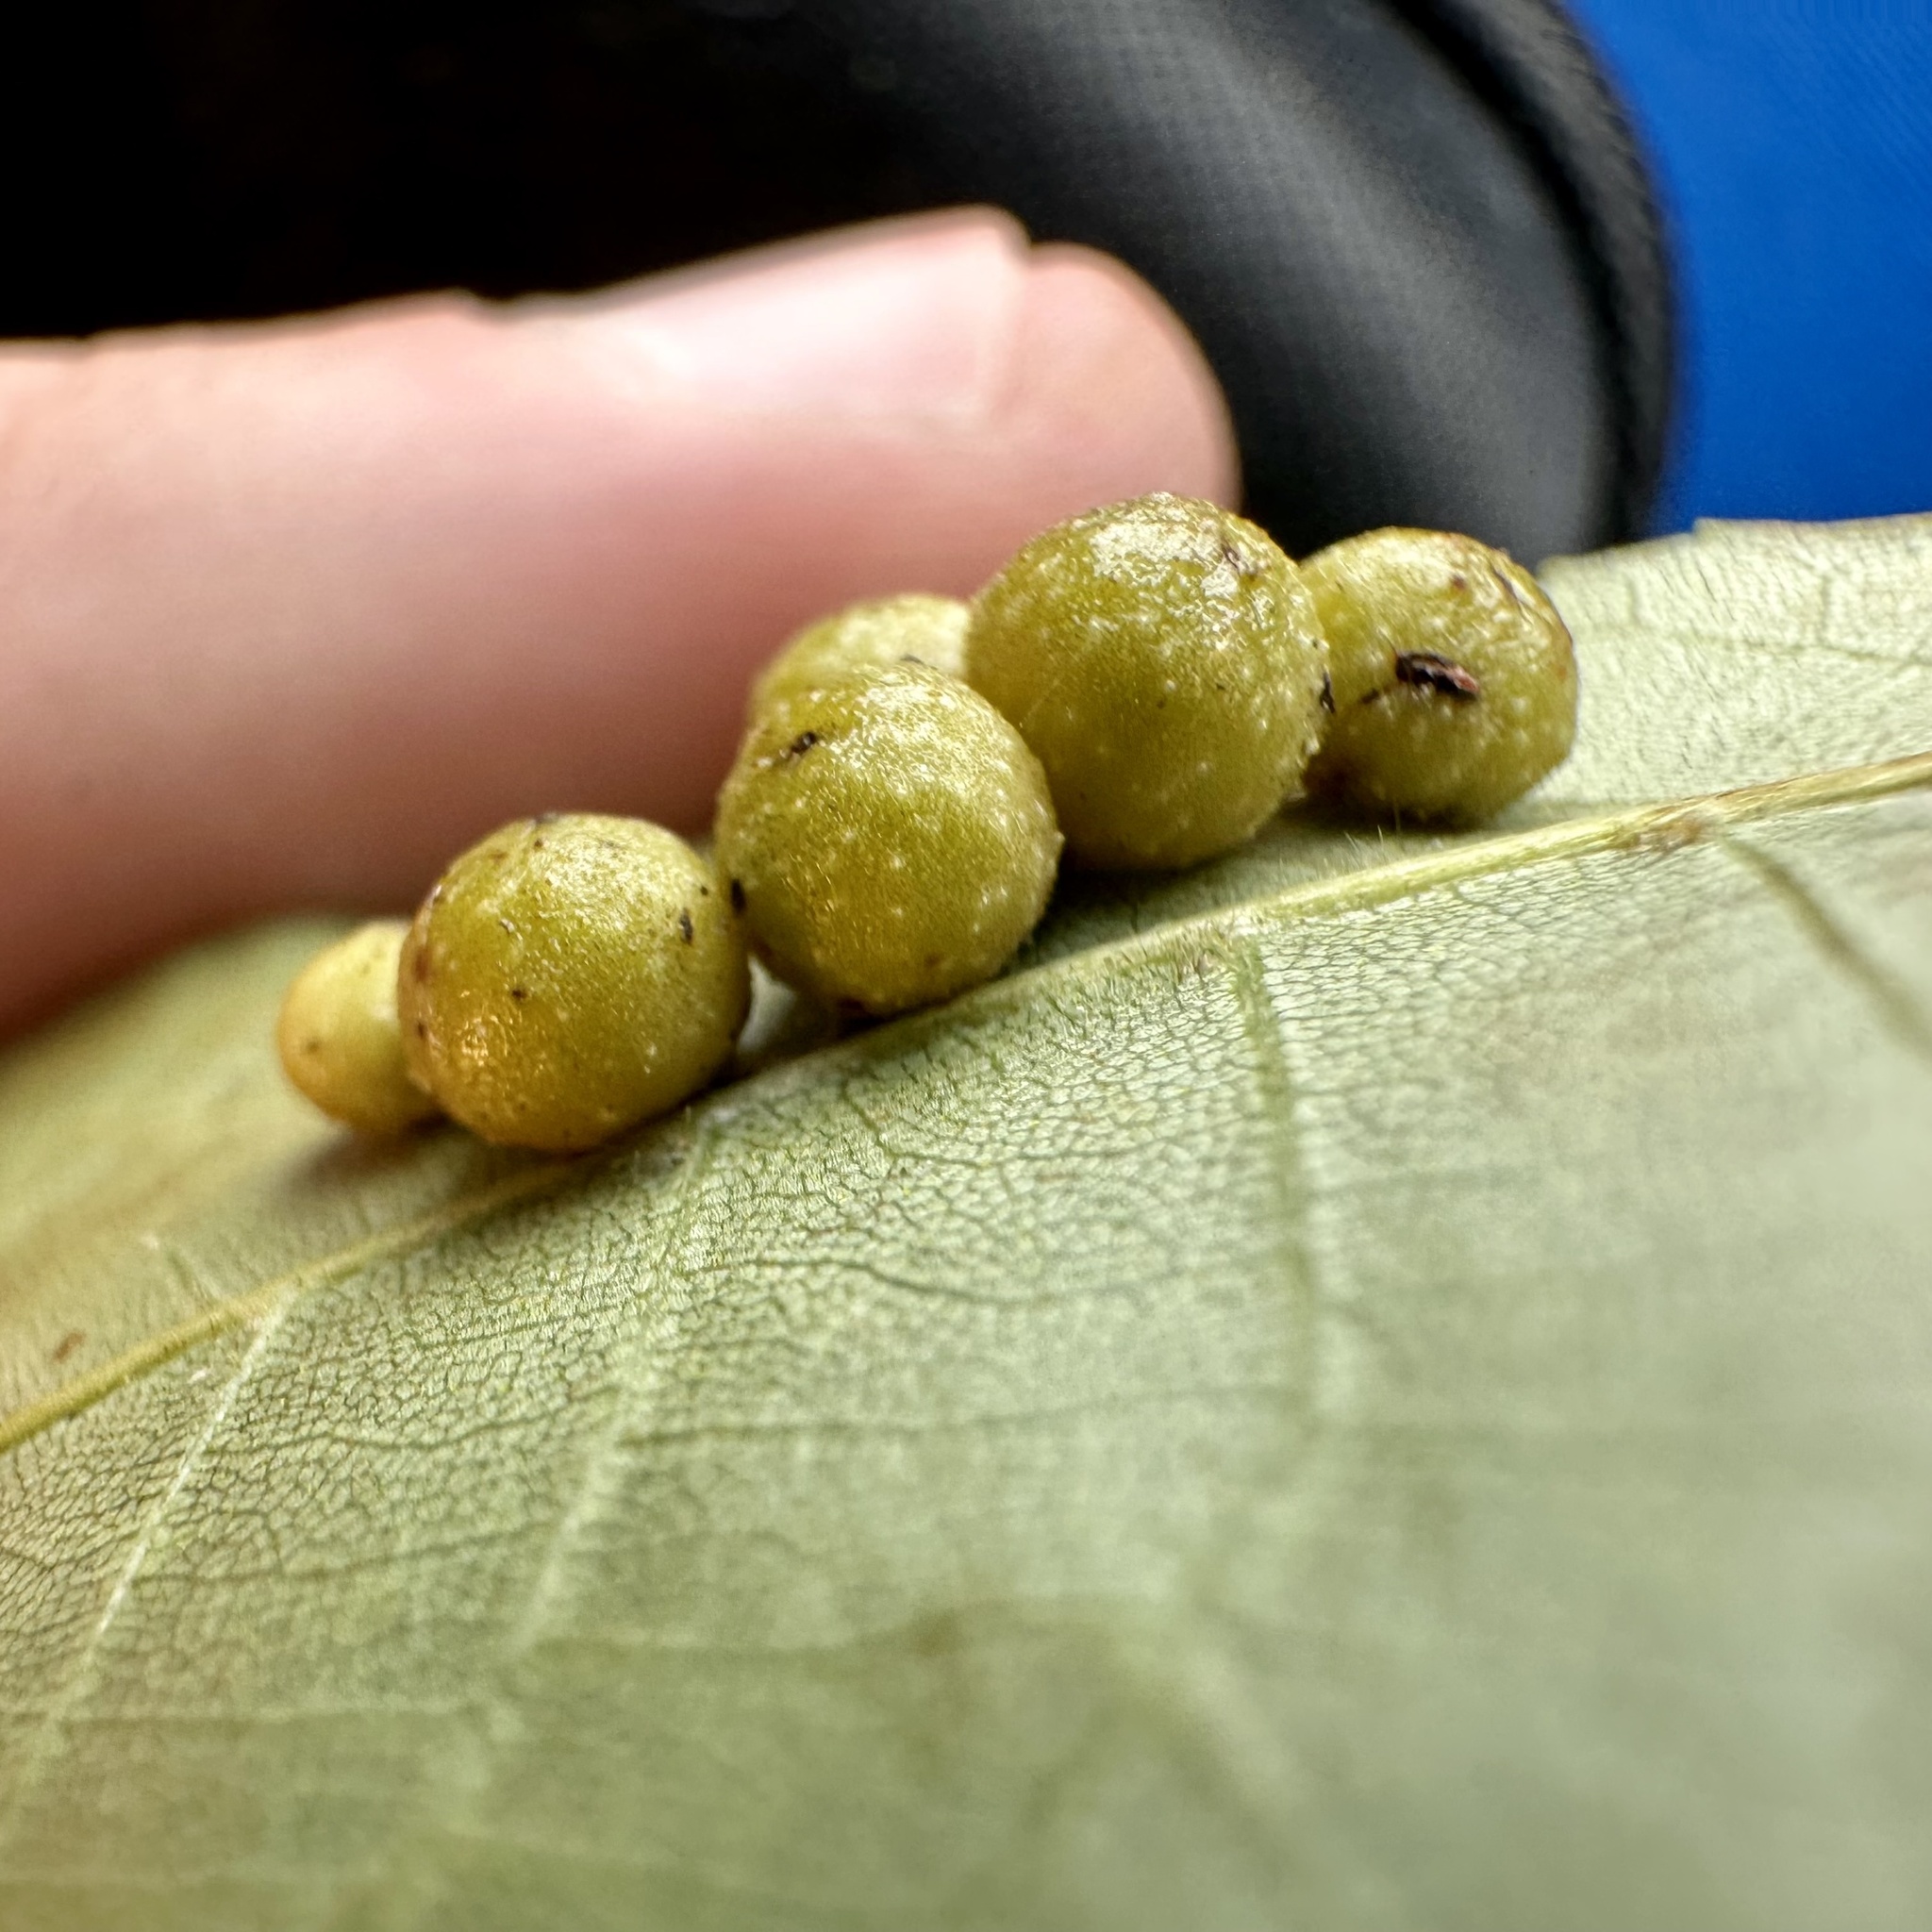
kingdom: Animalia
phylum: Arthropoda
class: Insecta
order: Diptera
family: Cecidomyiidae
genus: Caryomyia
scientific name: Caryomyia tuberculata
